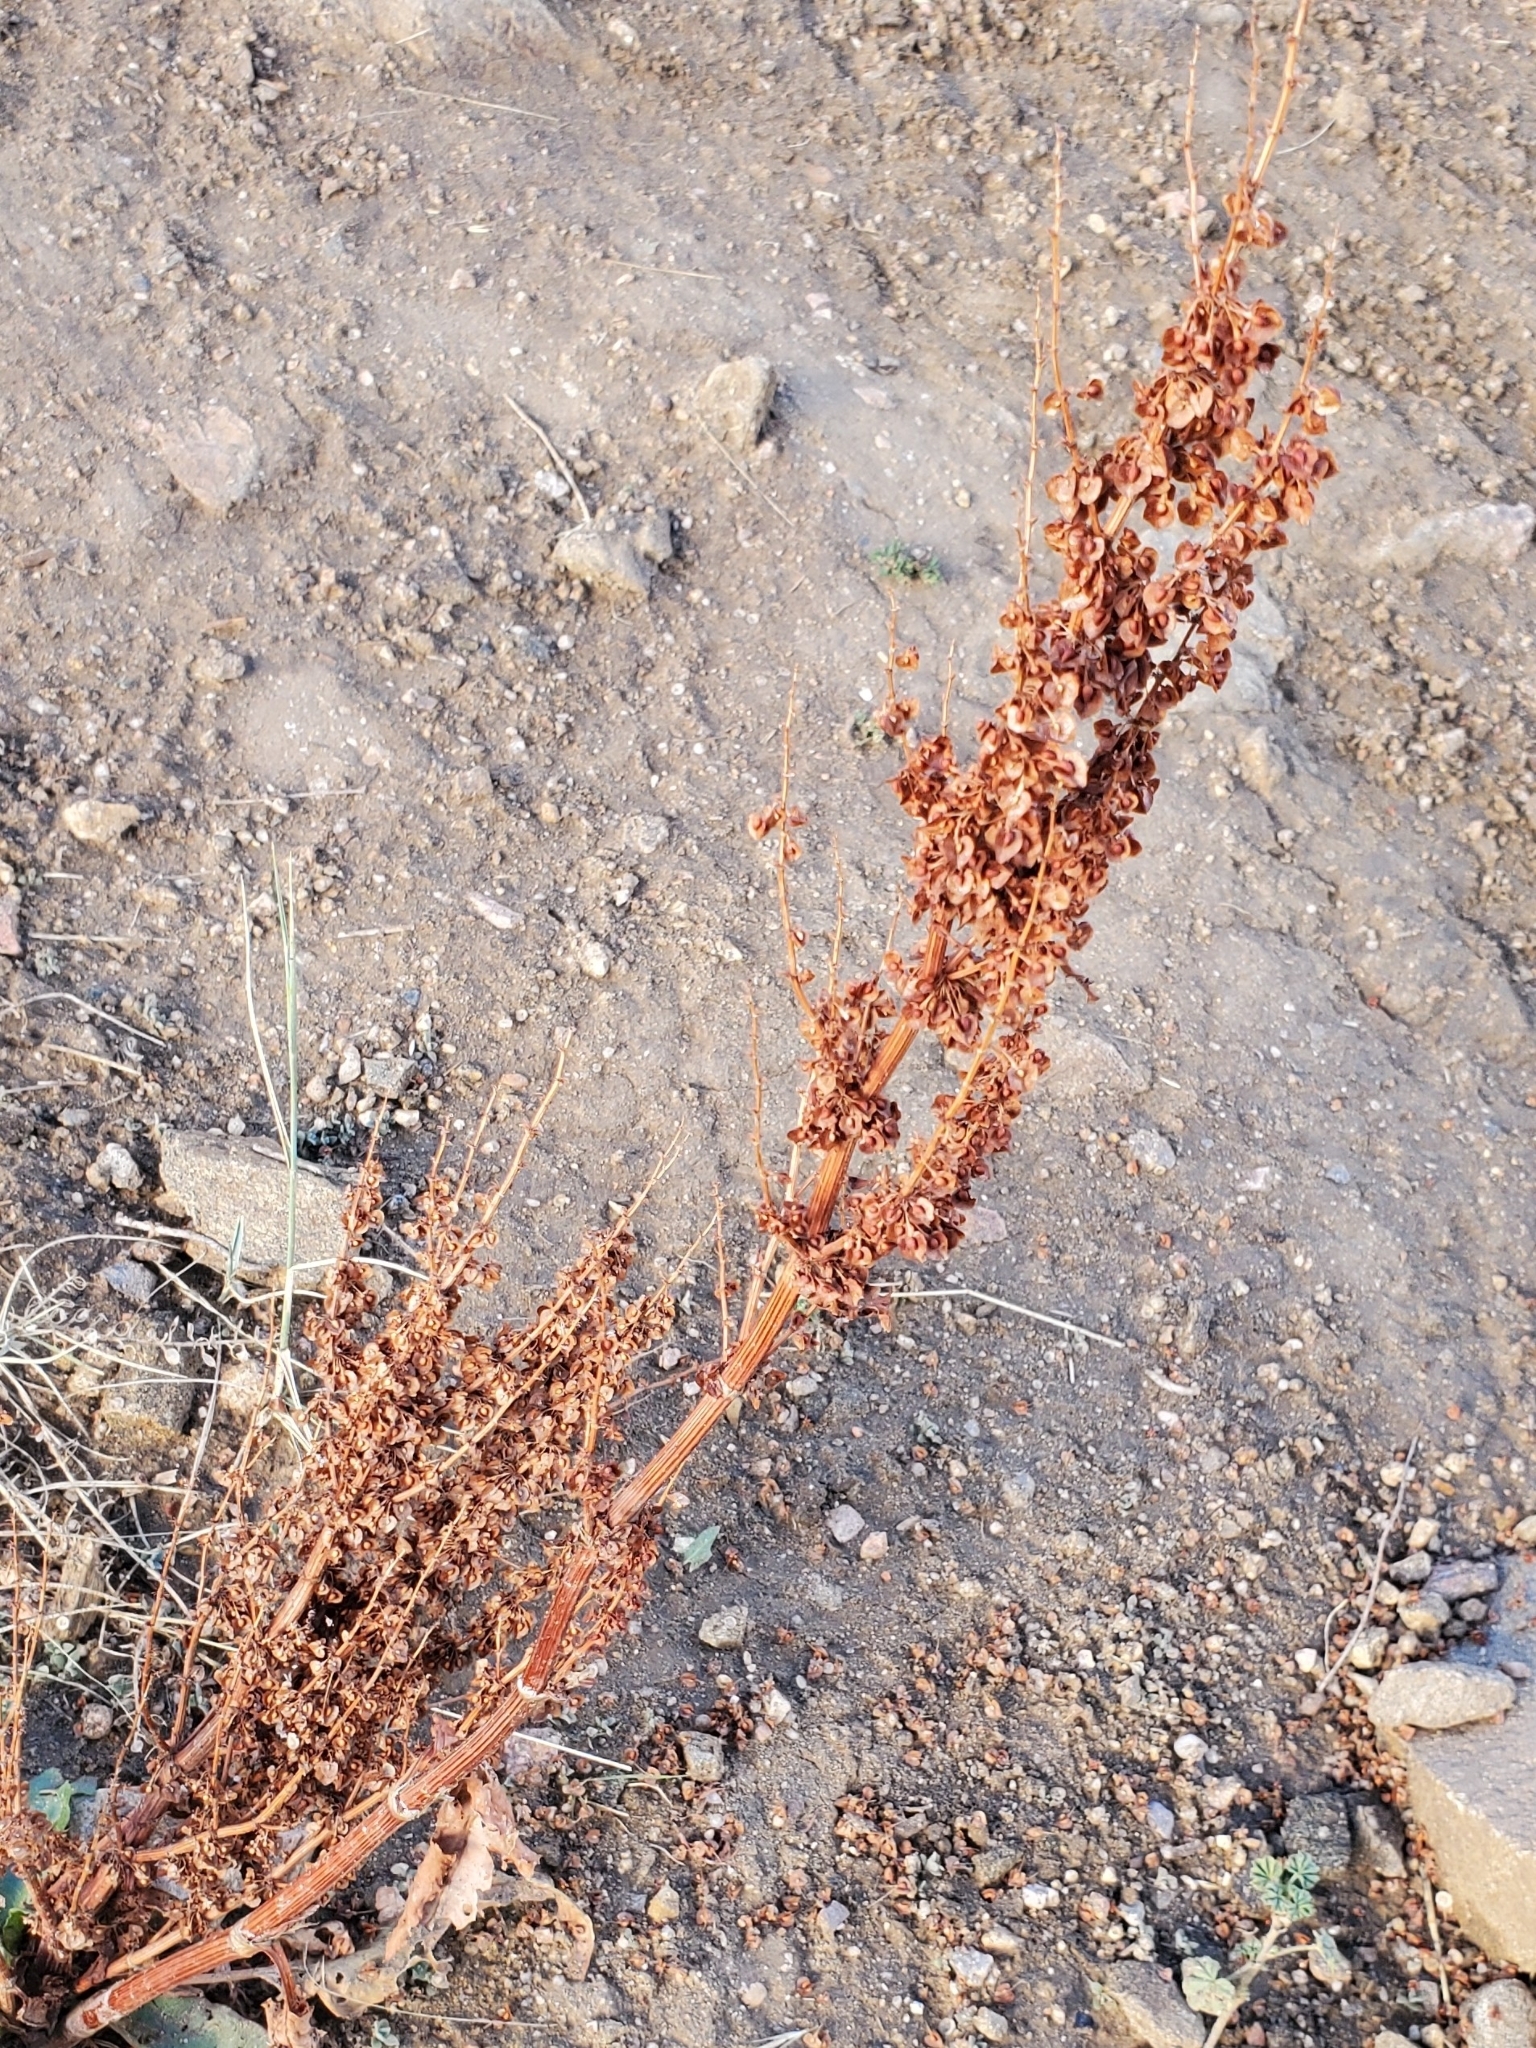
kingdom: Plantae
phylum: Tracheophyta
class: Magnoliopsida
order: Caryophyllales
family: Polygonaceae
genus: Rumex
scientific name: Rumex crispus
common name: Curled dock
